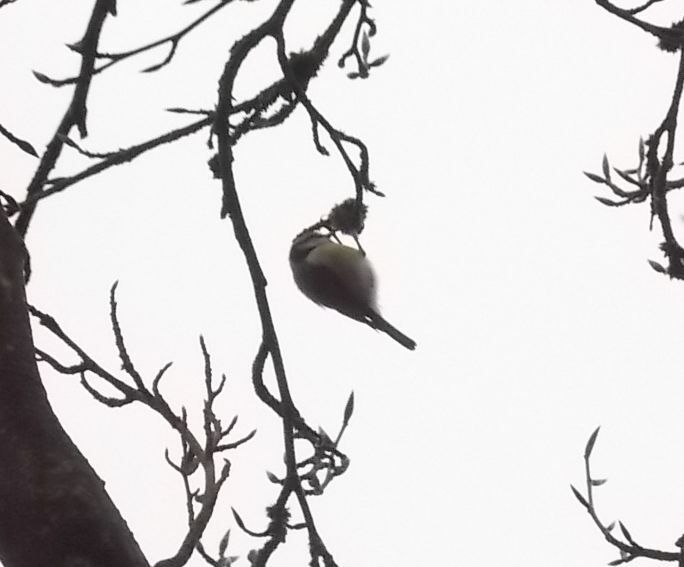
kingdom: Animalia
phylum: Chordata
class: Aves
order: Passeriformes
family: Paridae
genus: Cyanistes
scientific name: Cyanistes caeruleus
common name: Eurasian blue tit
